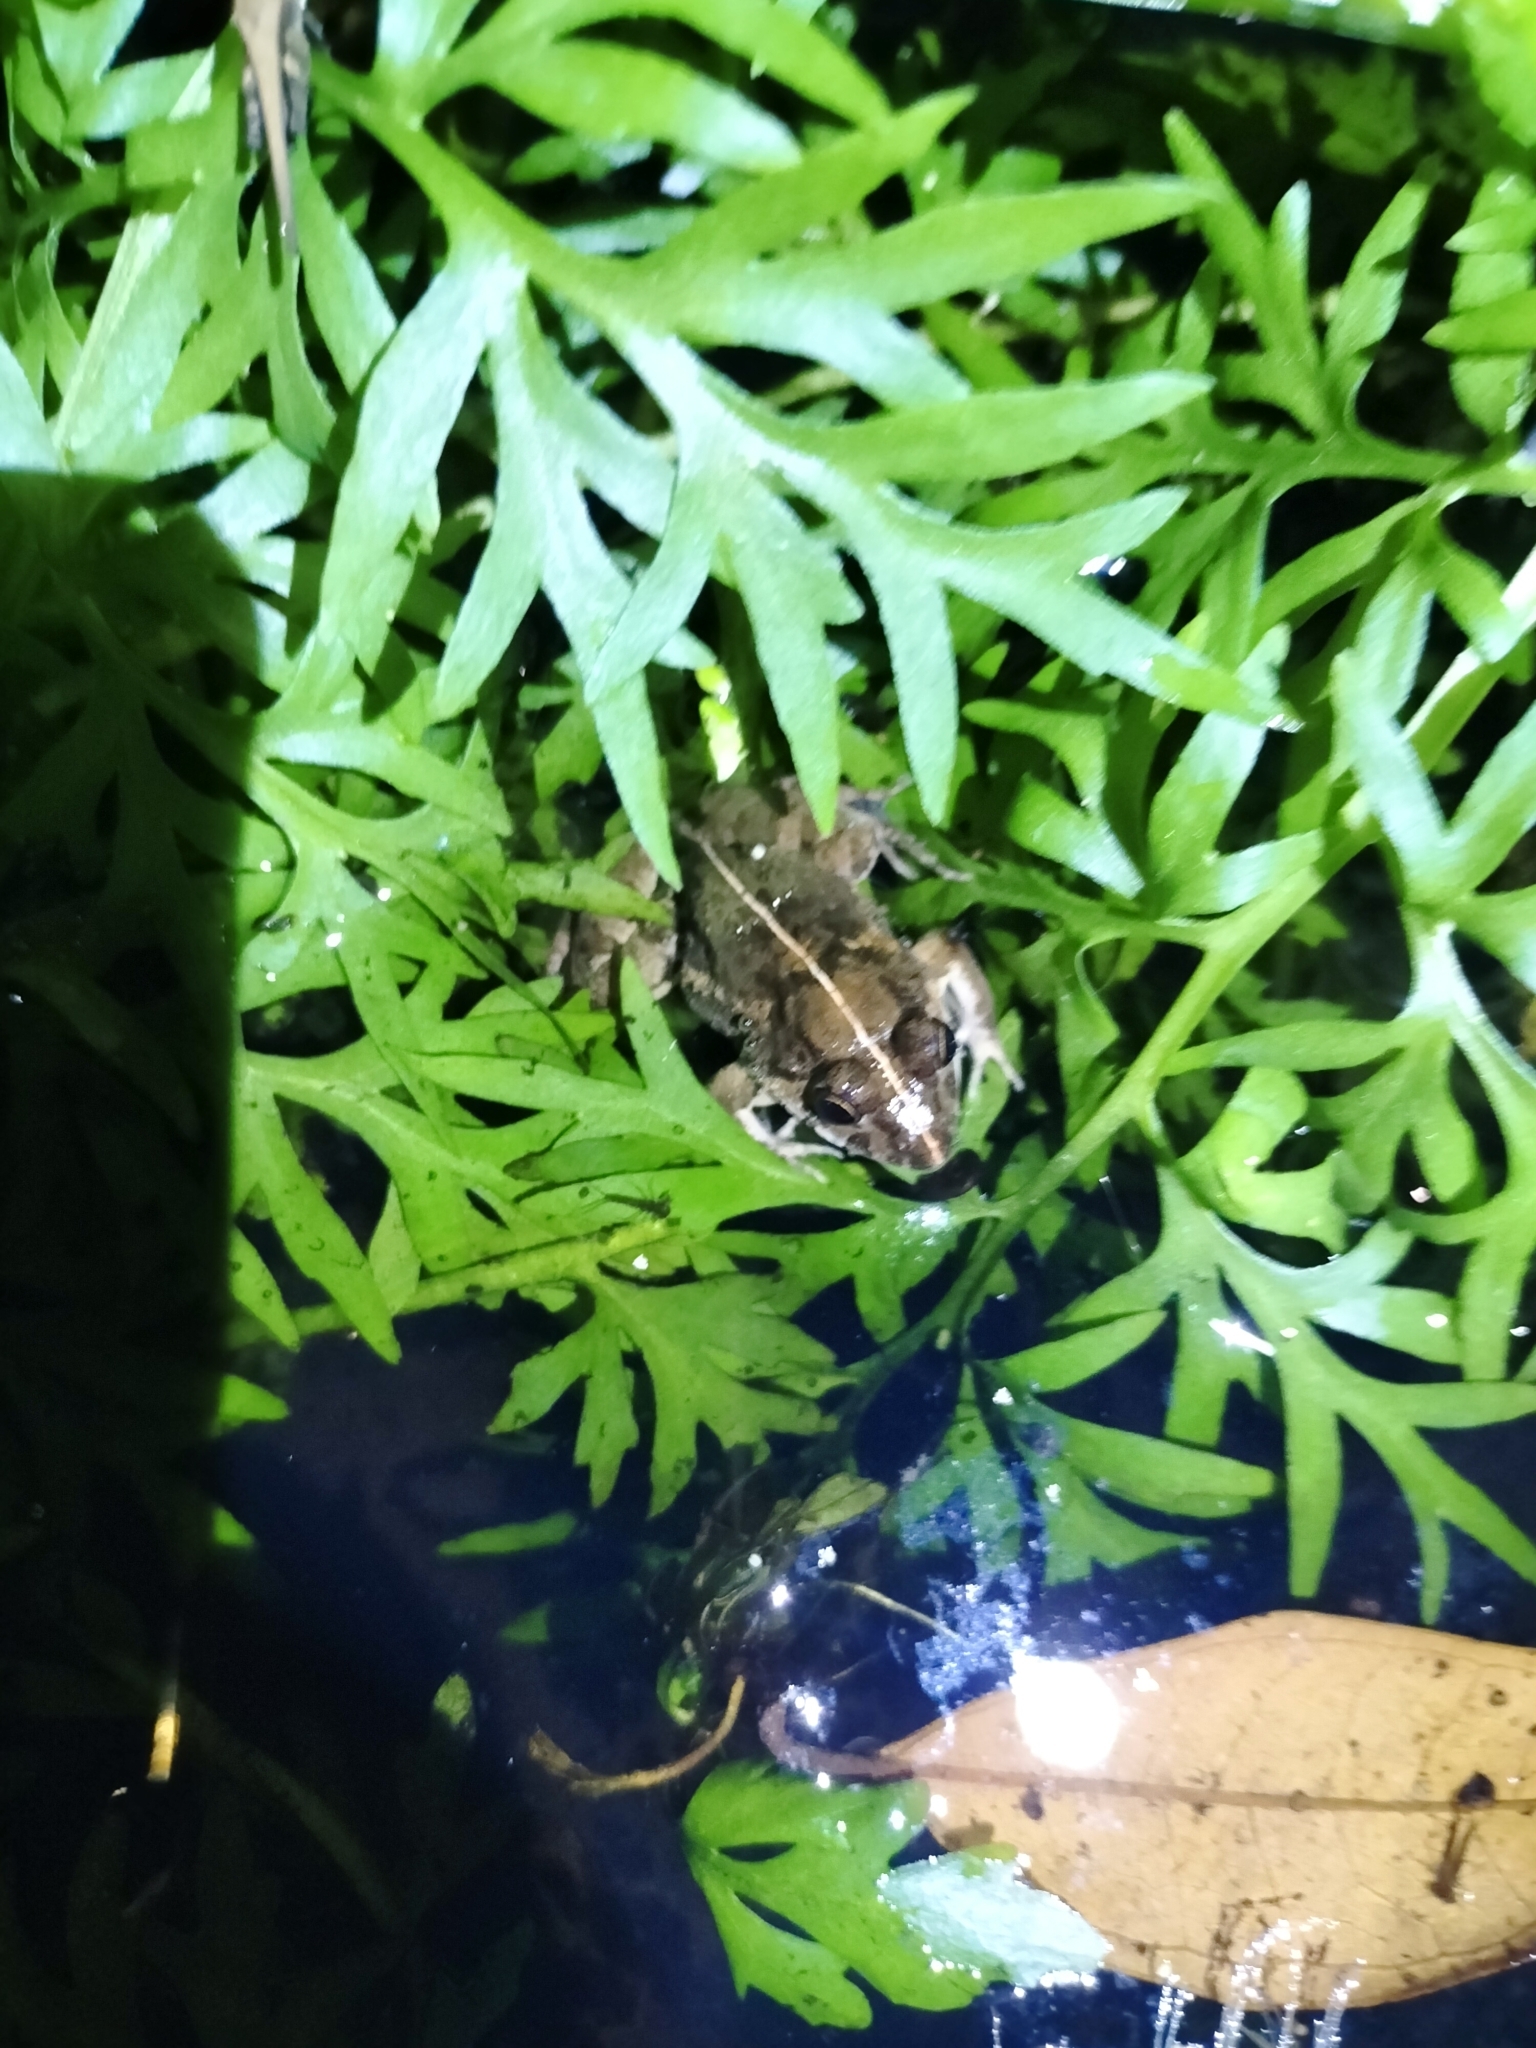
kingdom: Animalia
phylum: Chordata
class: Amphibia
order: Anura
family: Dicroglossidae
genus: Fejervarya
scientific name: Fejervarya limnocharis
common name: Asian grass frog/common pond frog/field frog/grass frog/indian rice frog
